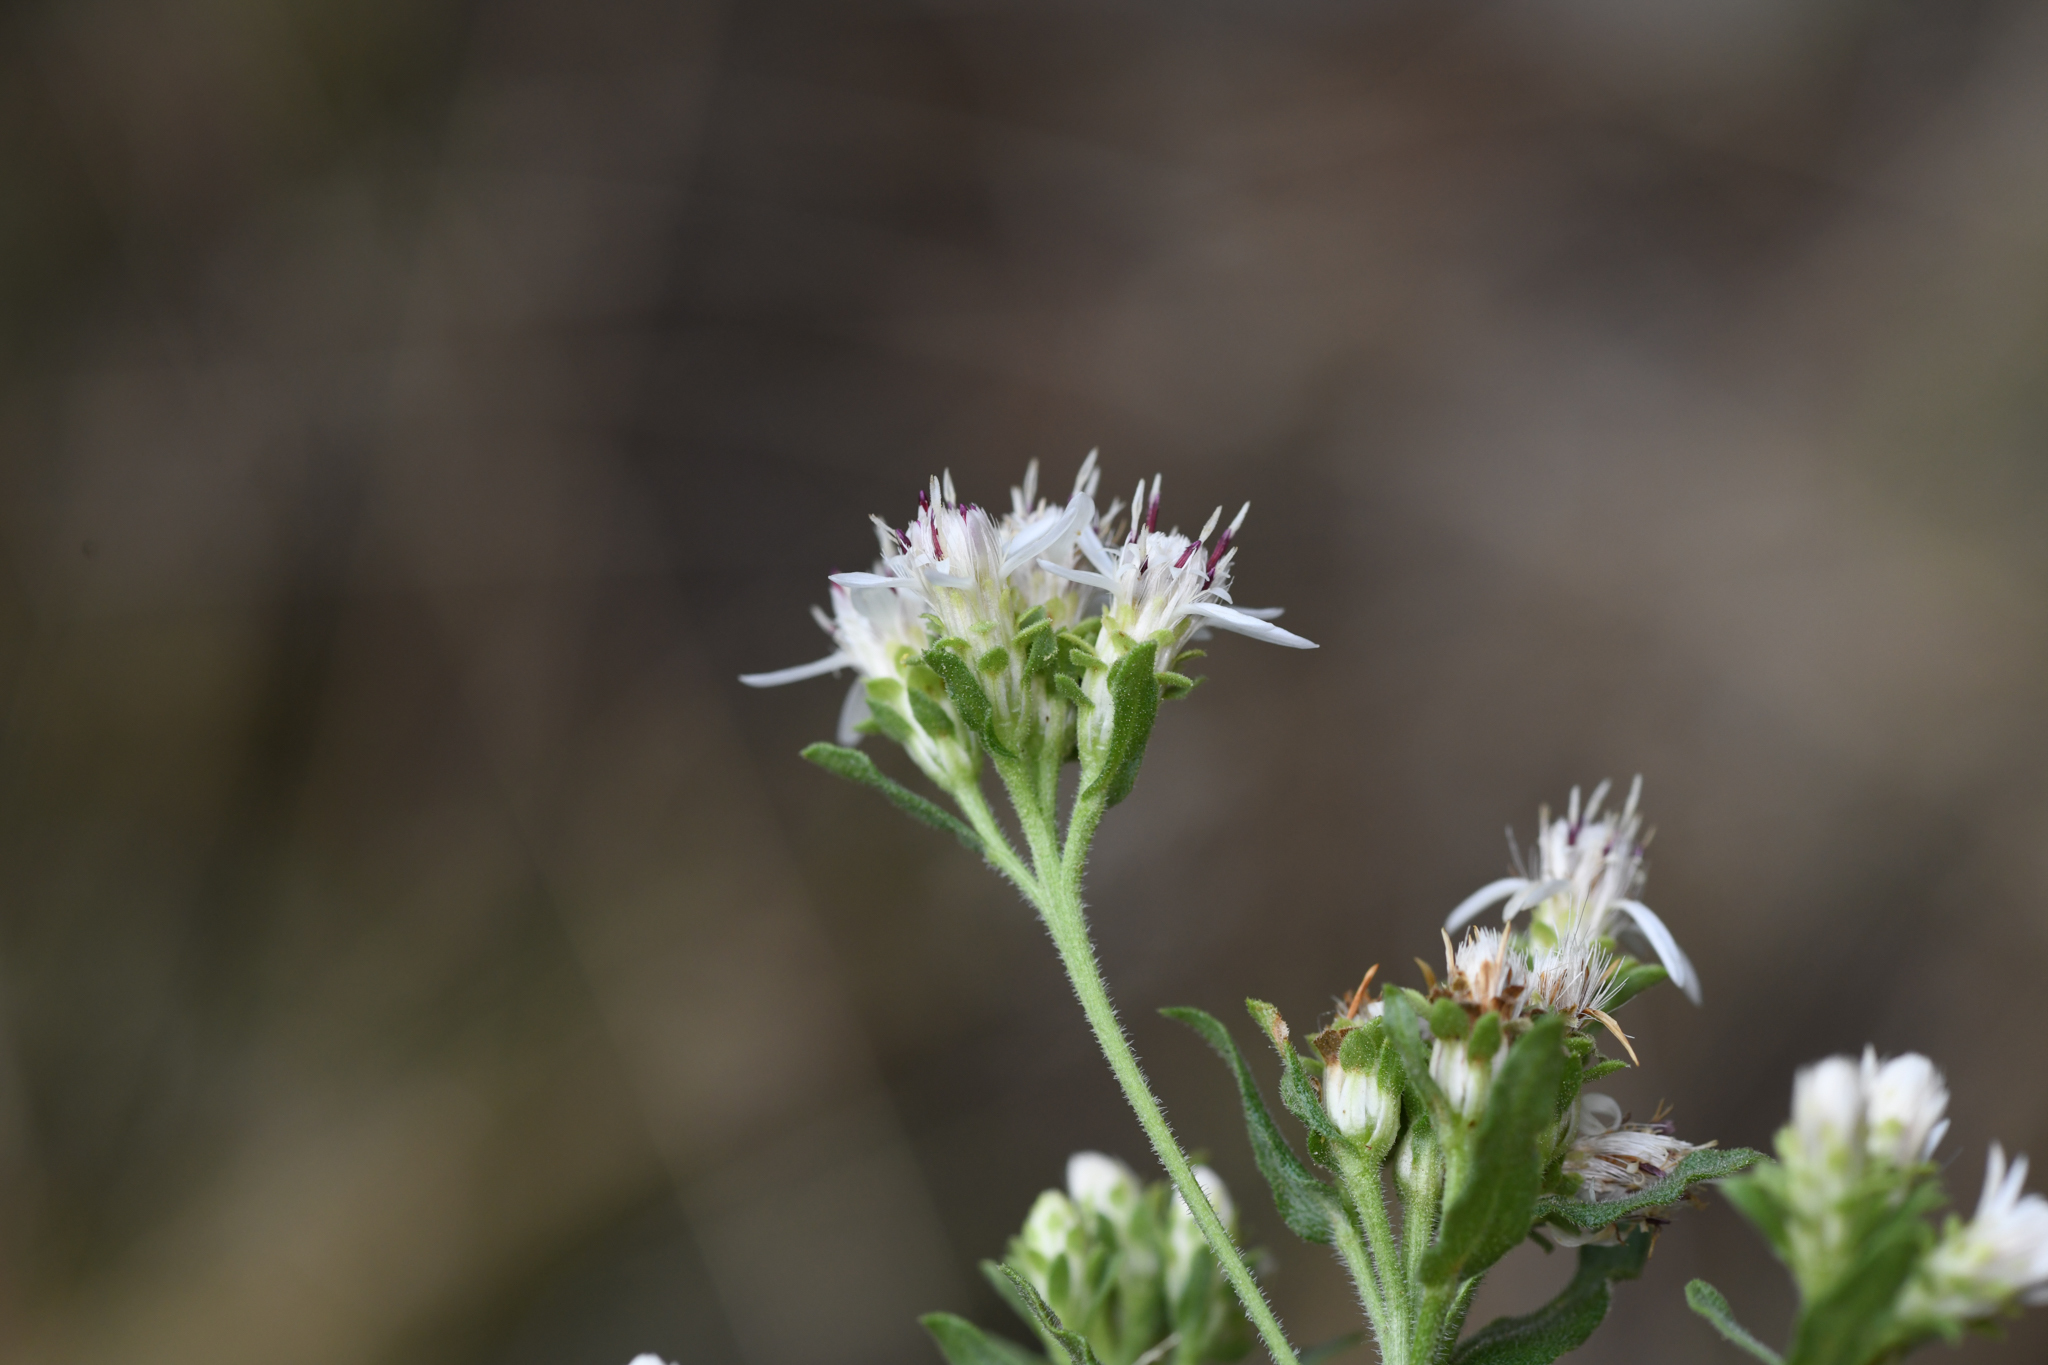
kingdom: Plantae
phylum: Tracheophyta
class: Magnoliopsida
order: Asterales
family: Asteraceae
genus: Sericocarpus
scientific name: Sericocarpus oregonensis
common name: Oregon white-top aster
